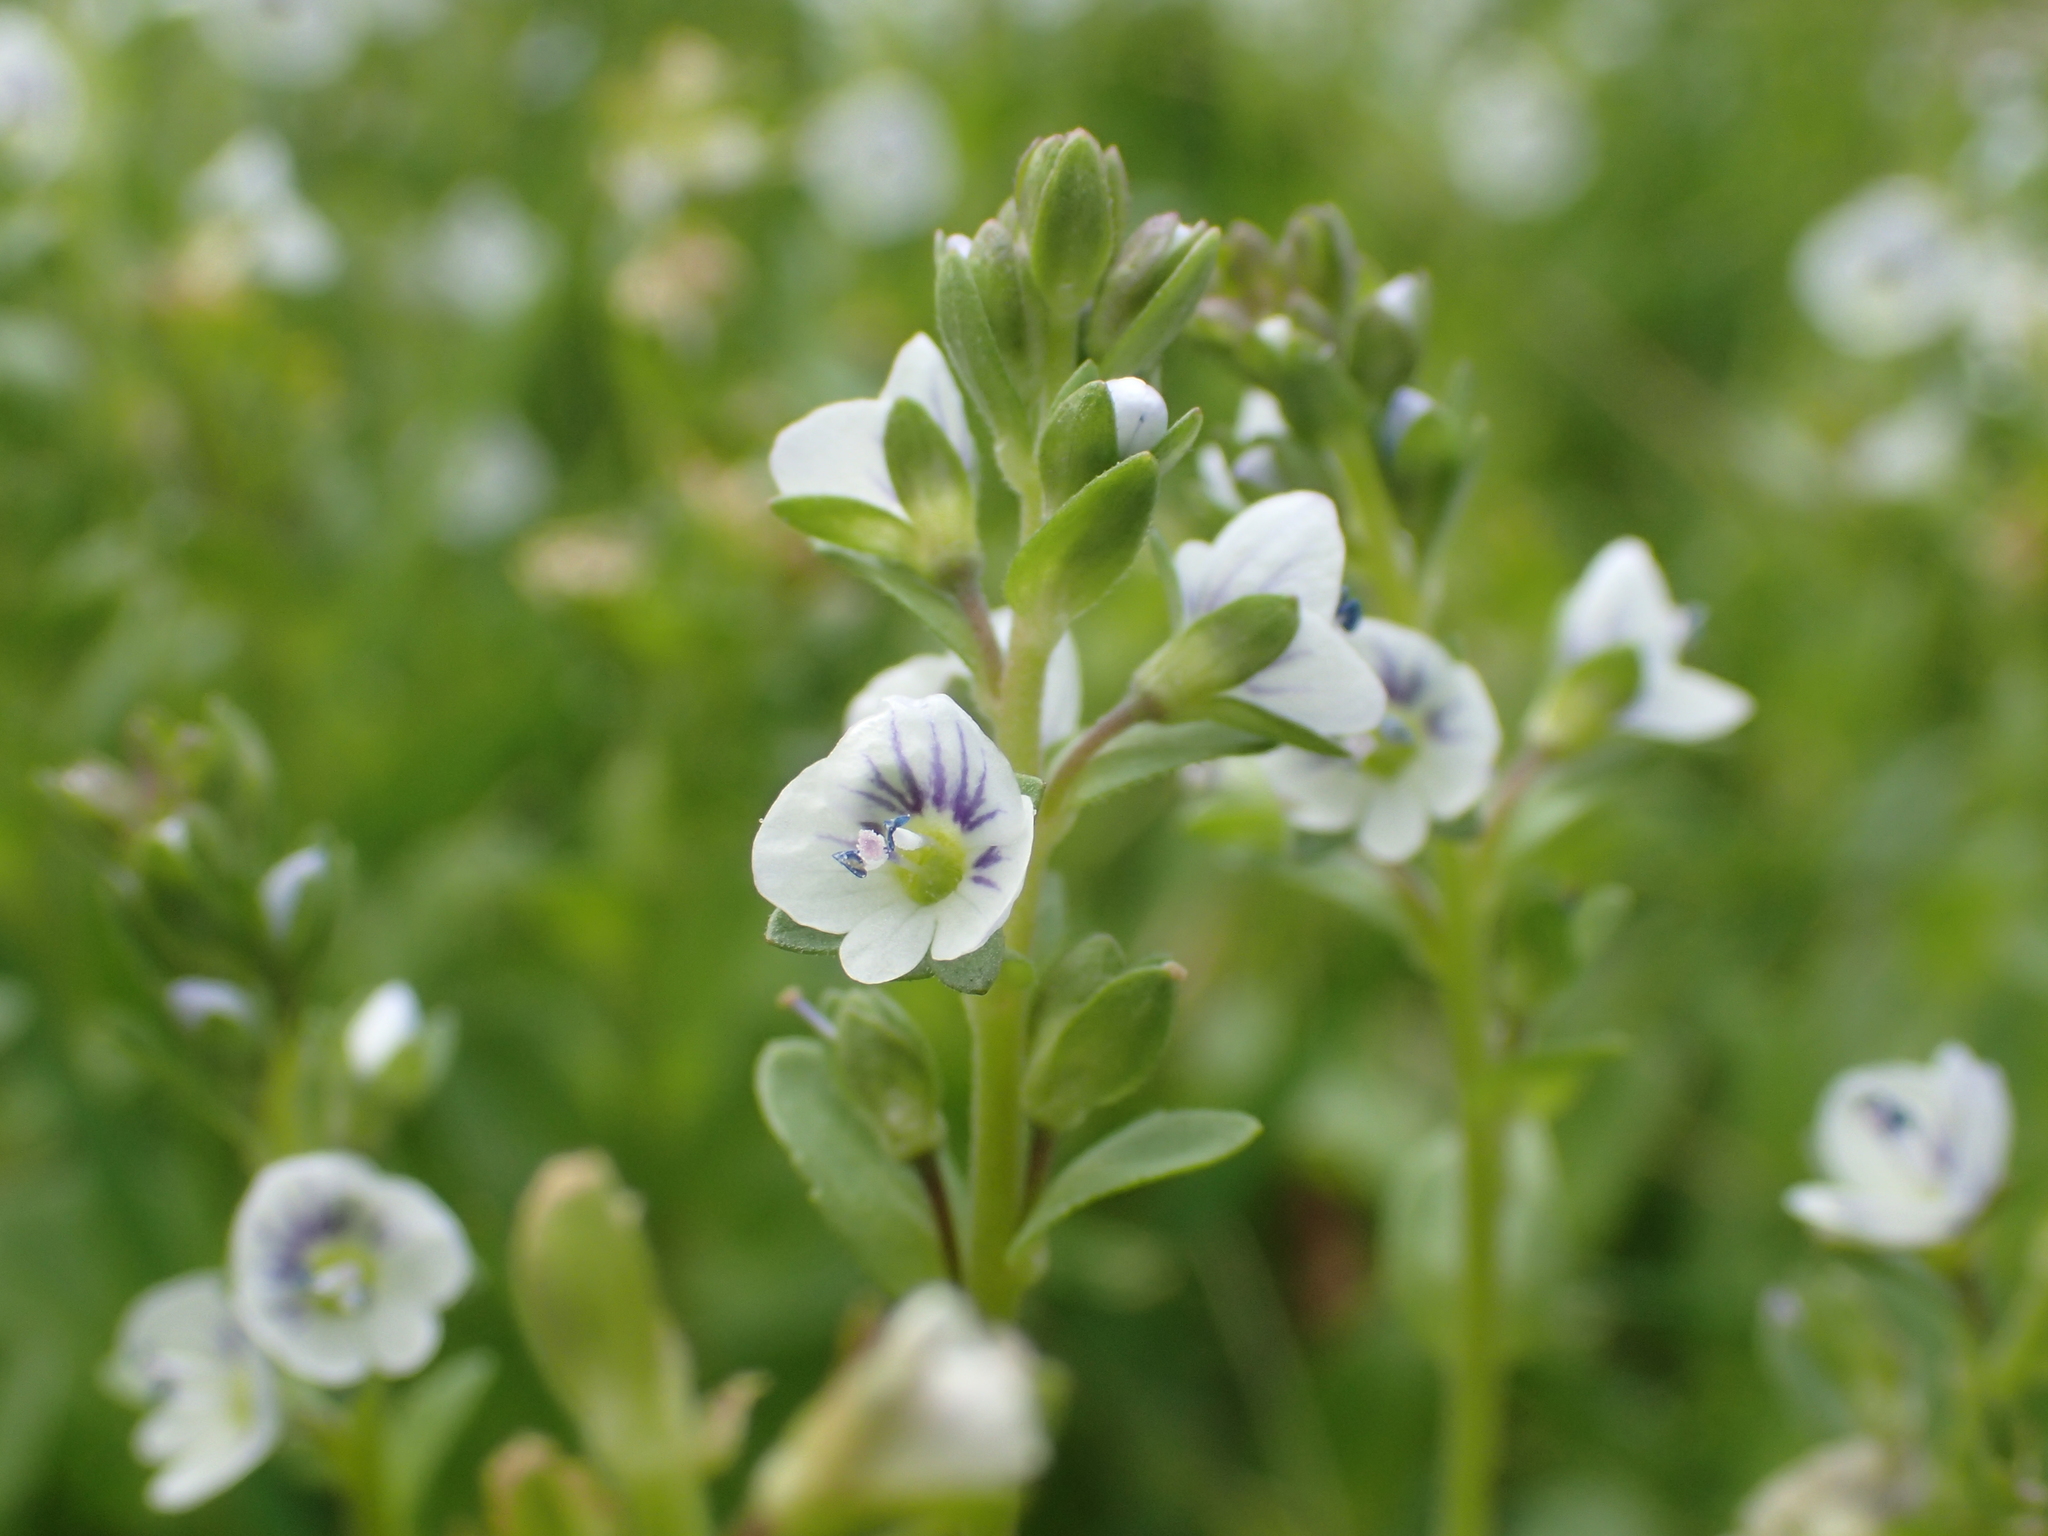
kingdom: Plantae
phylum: Tracheophyta
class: Magnoliopsida
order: Lamiales
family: Plantaginaceae
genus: Veronica
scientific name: Veronica serpyllifolia
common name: Thyme-leaved speedwell
